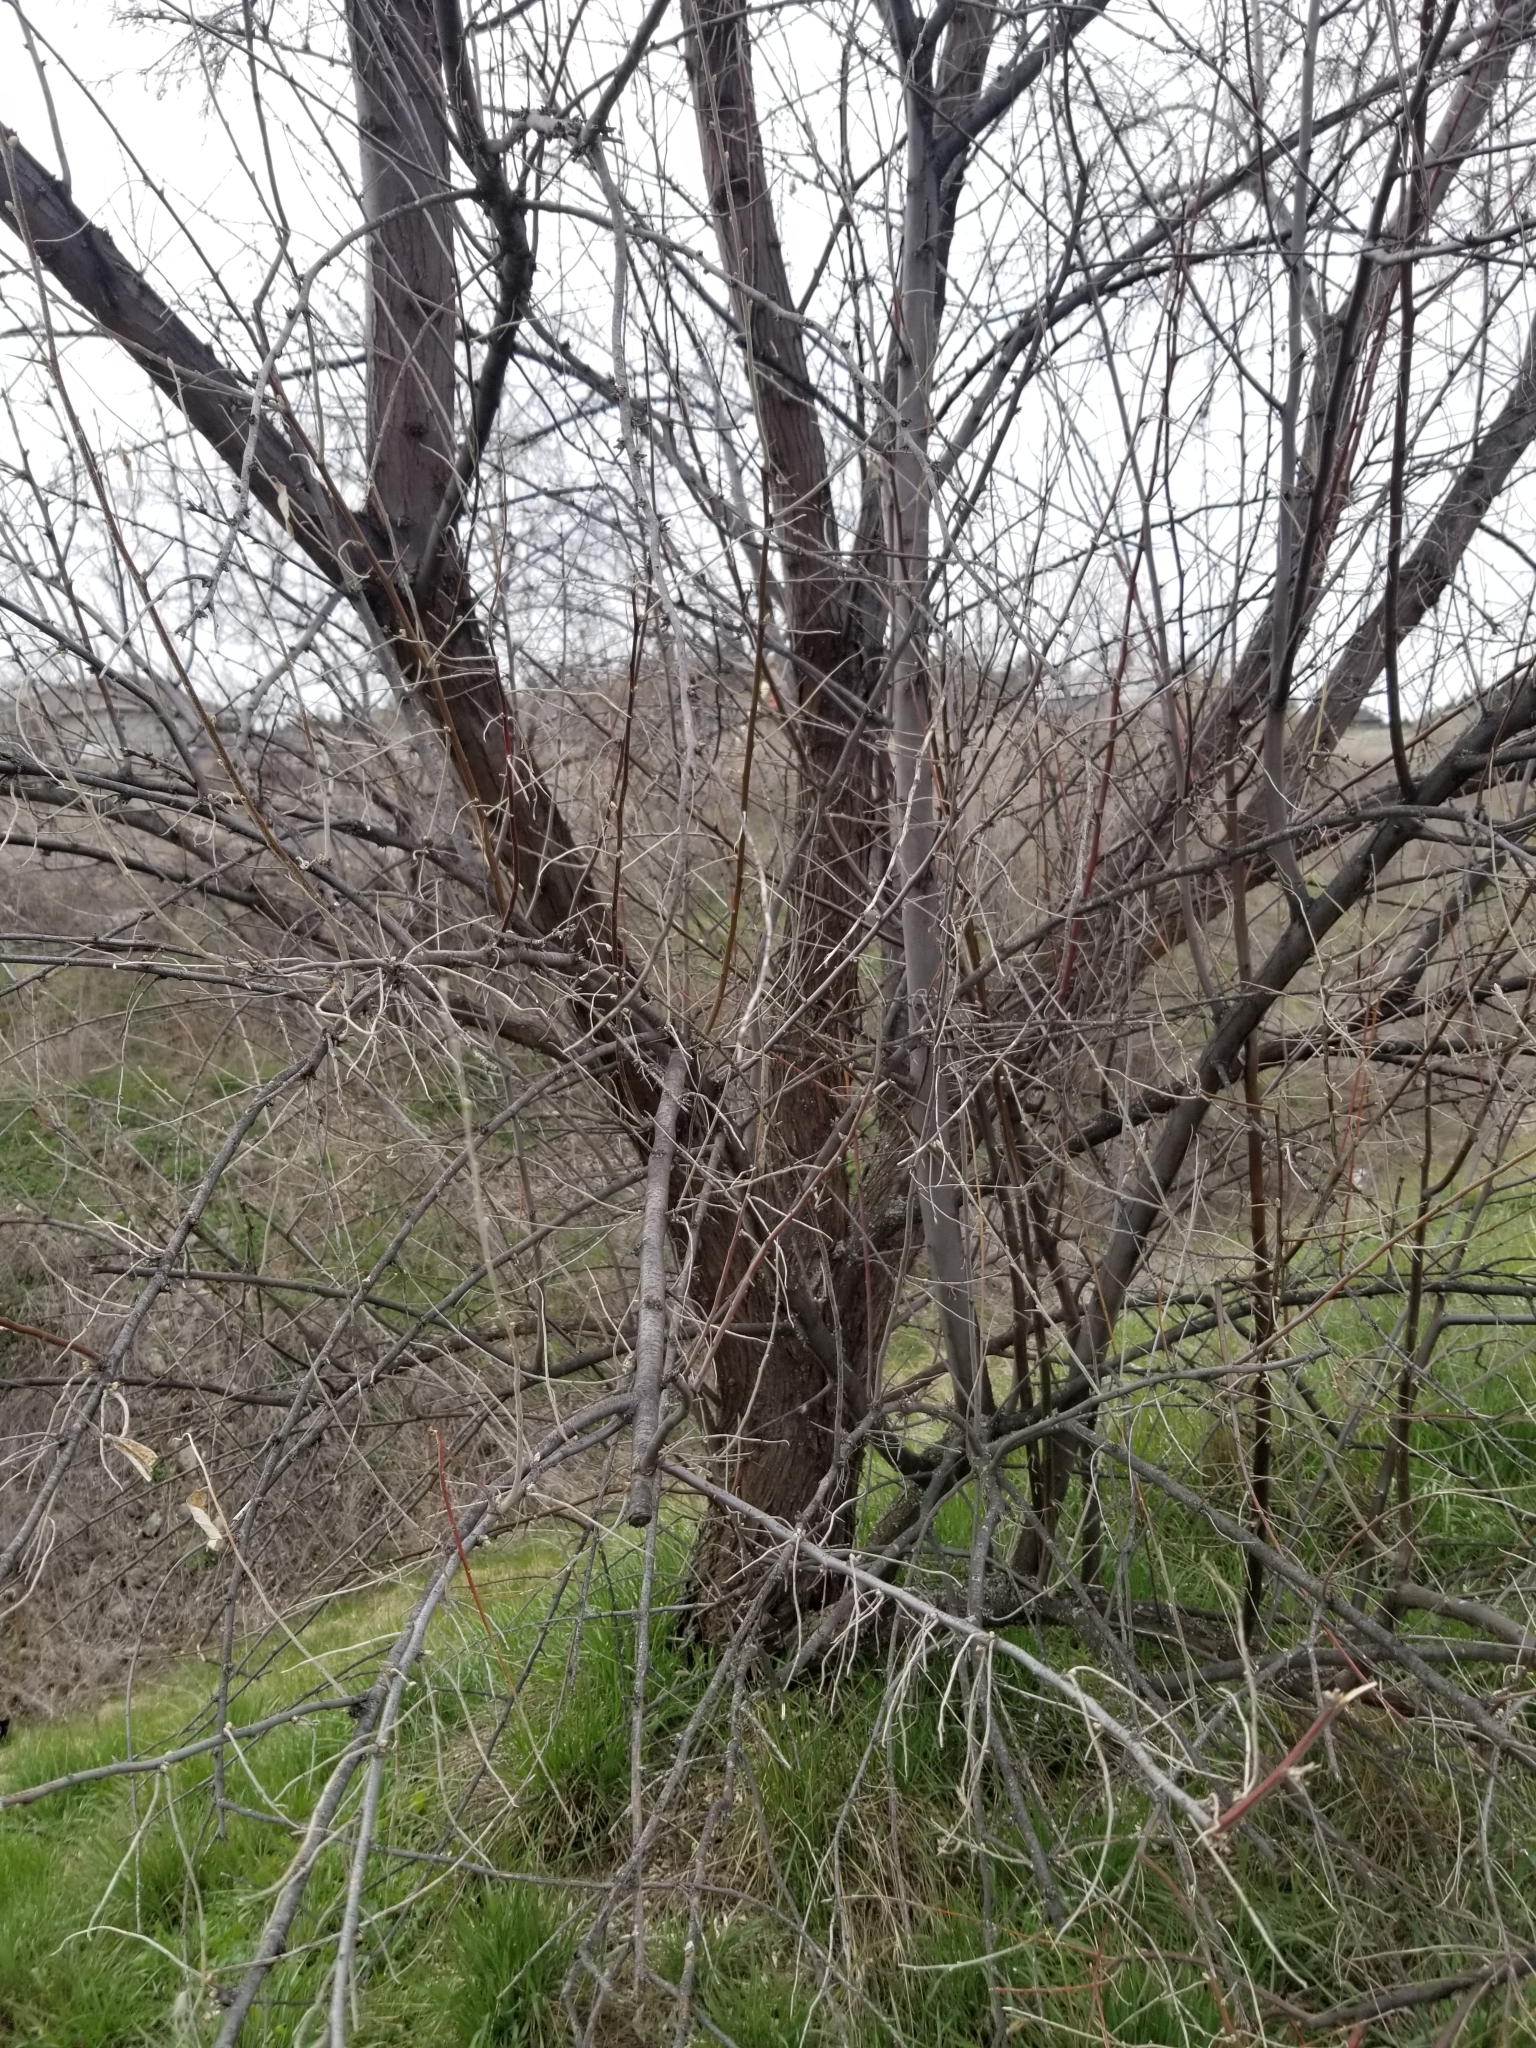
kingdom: Plantae
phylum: Tracheophyta
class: Magnoliopsida
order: Rosales
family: Elaeagnaceae
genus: Elaeagnus
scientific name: Elaeagnus angustifolia
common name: Russian olive
